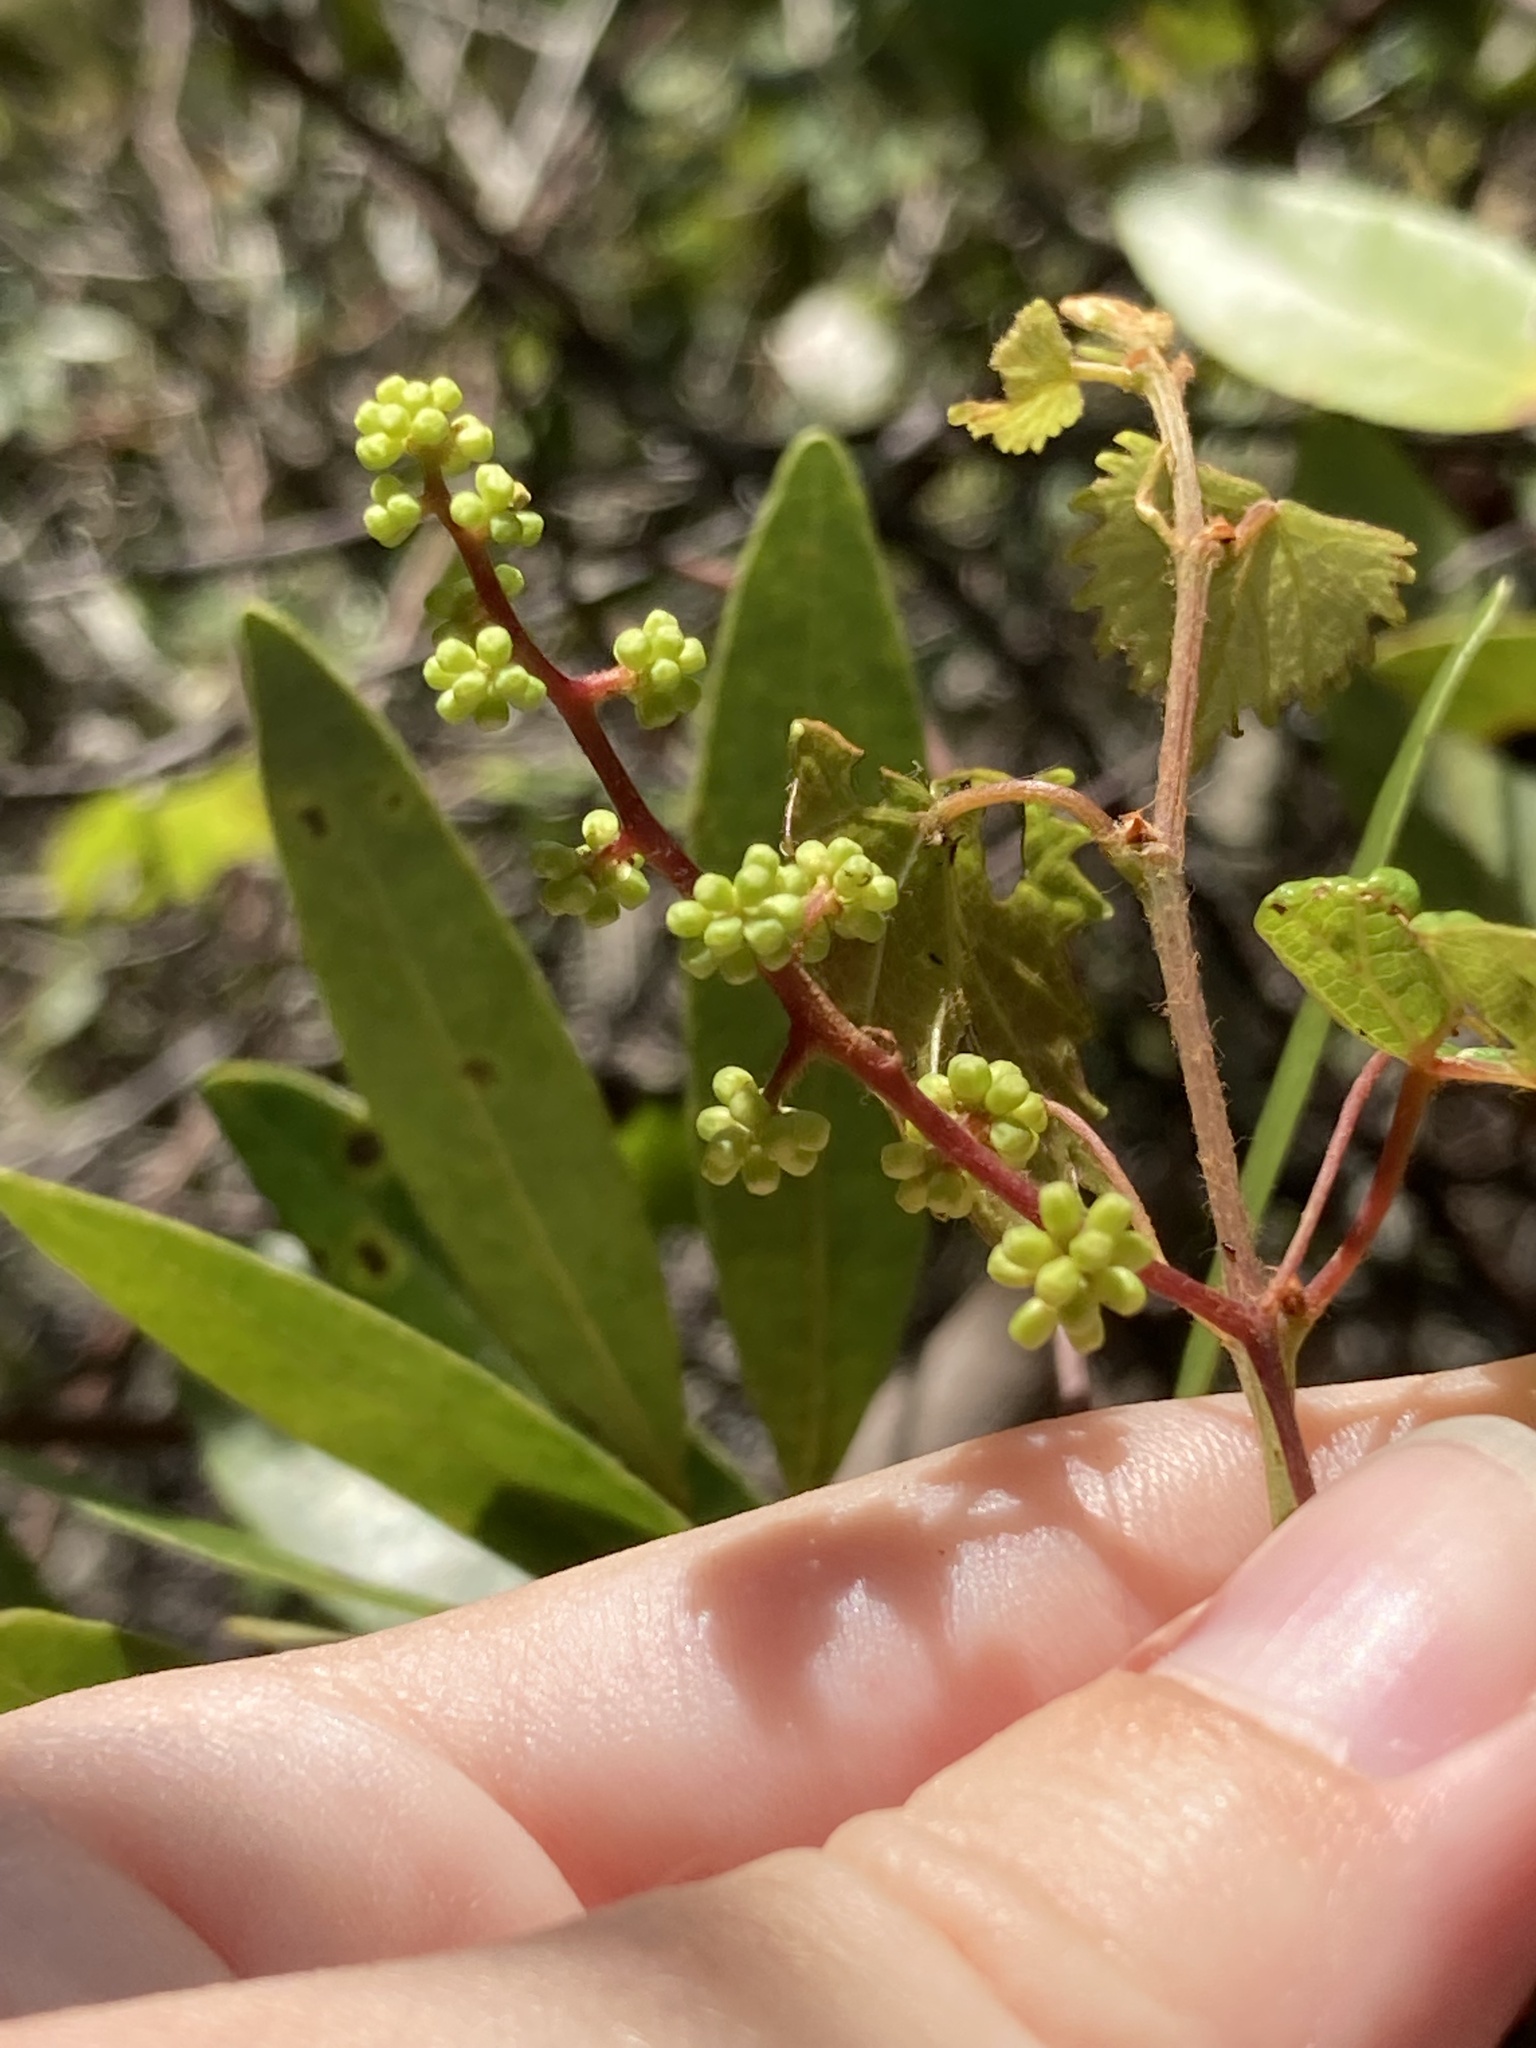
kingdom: Plantae
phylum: Tracheophyta
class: Magnoliopsida
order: Vitales
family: Vitaceae
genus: Vitis
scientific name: Vitis rotundifolia
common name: Muscadine grape
